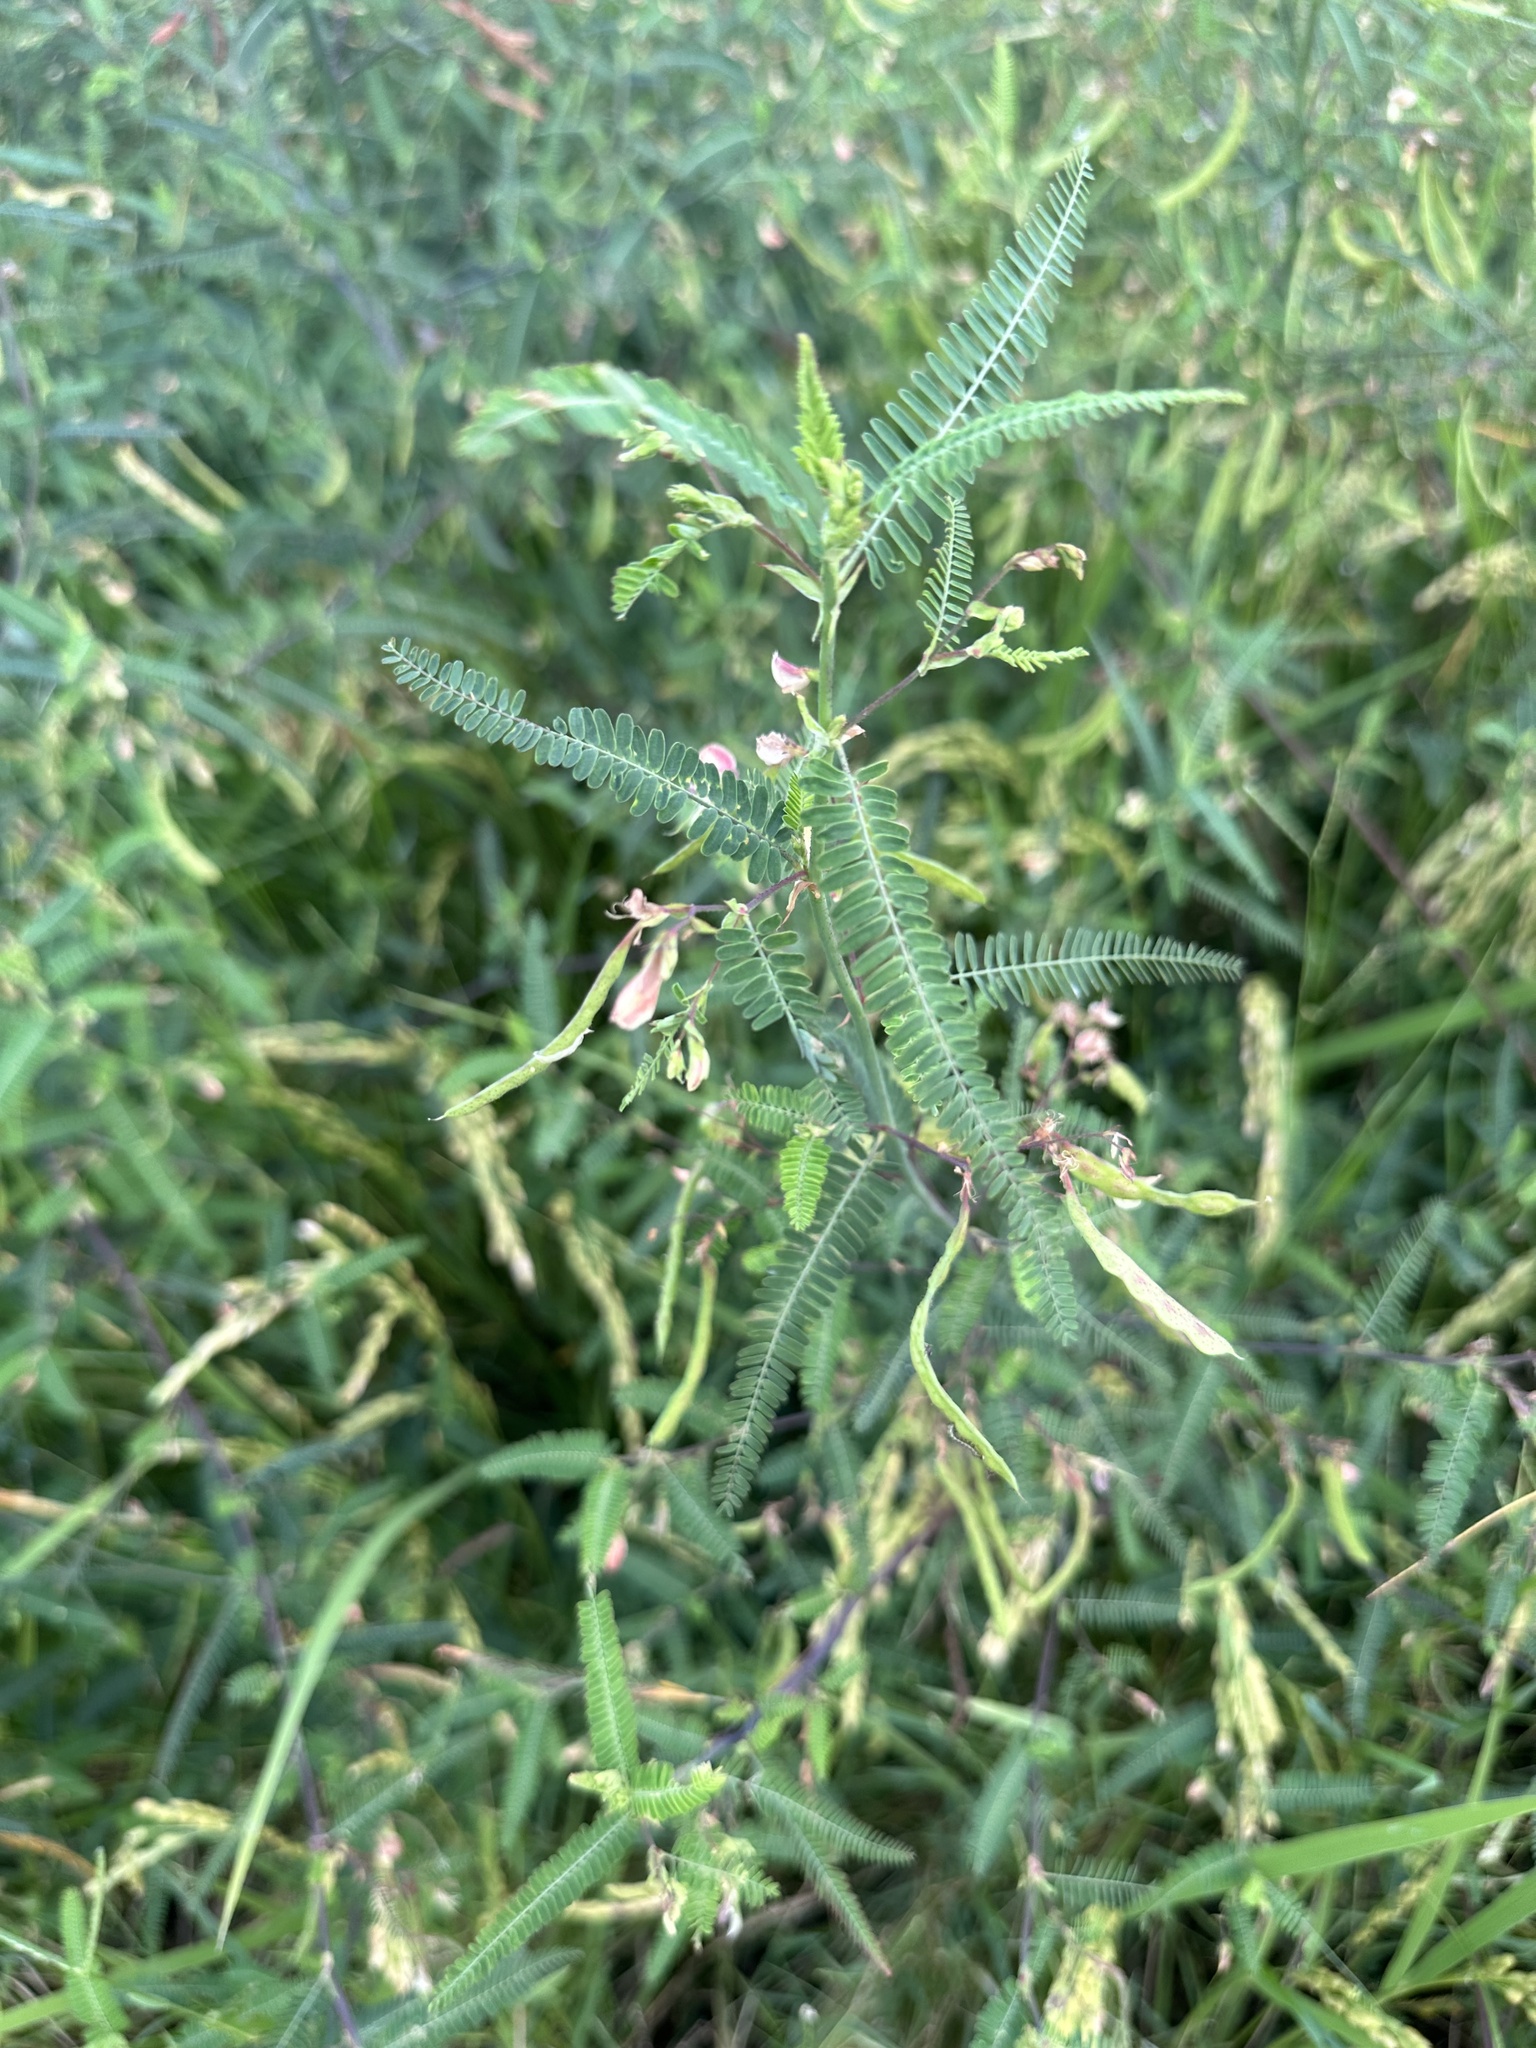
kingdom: Plantae
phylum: Tracheophyta
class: Magnoliopsida
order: Fabales
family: Fabaceae
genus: Aeschynomene
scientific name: Aeschynomene indica
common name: Indian jointvetch
